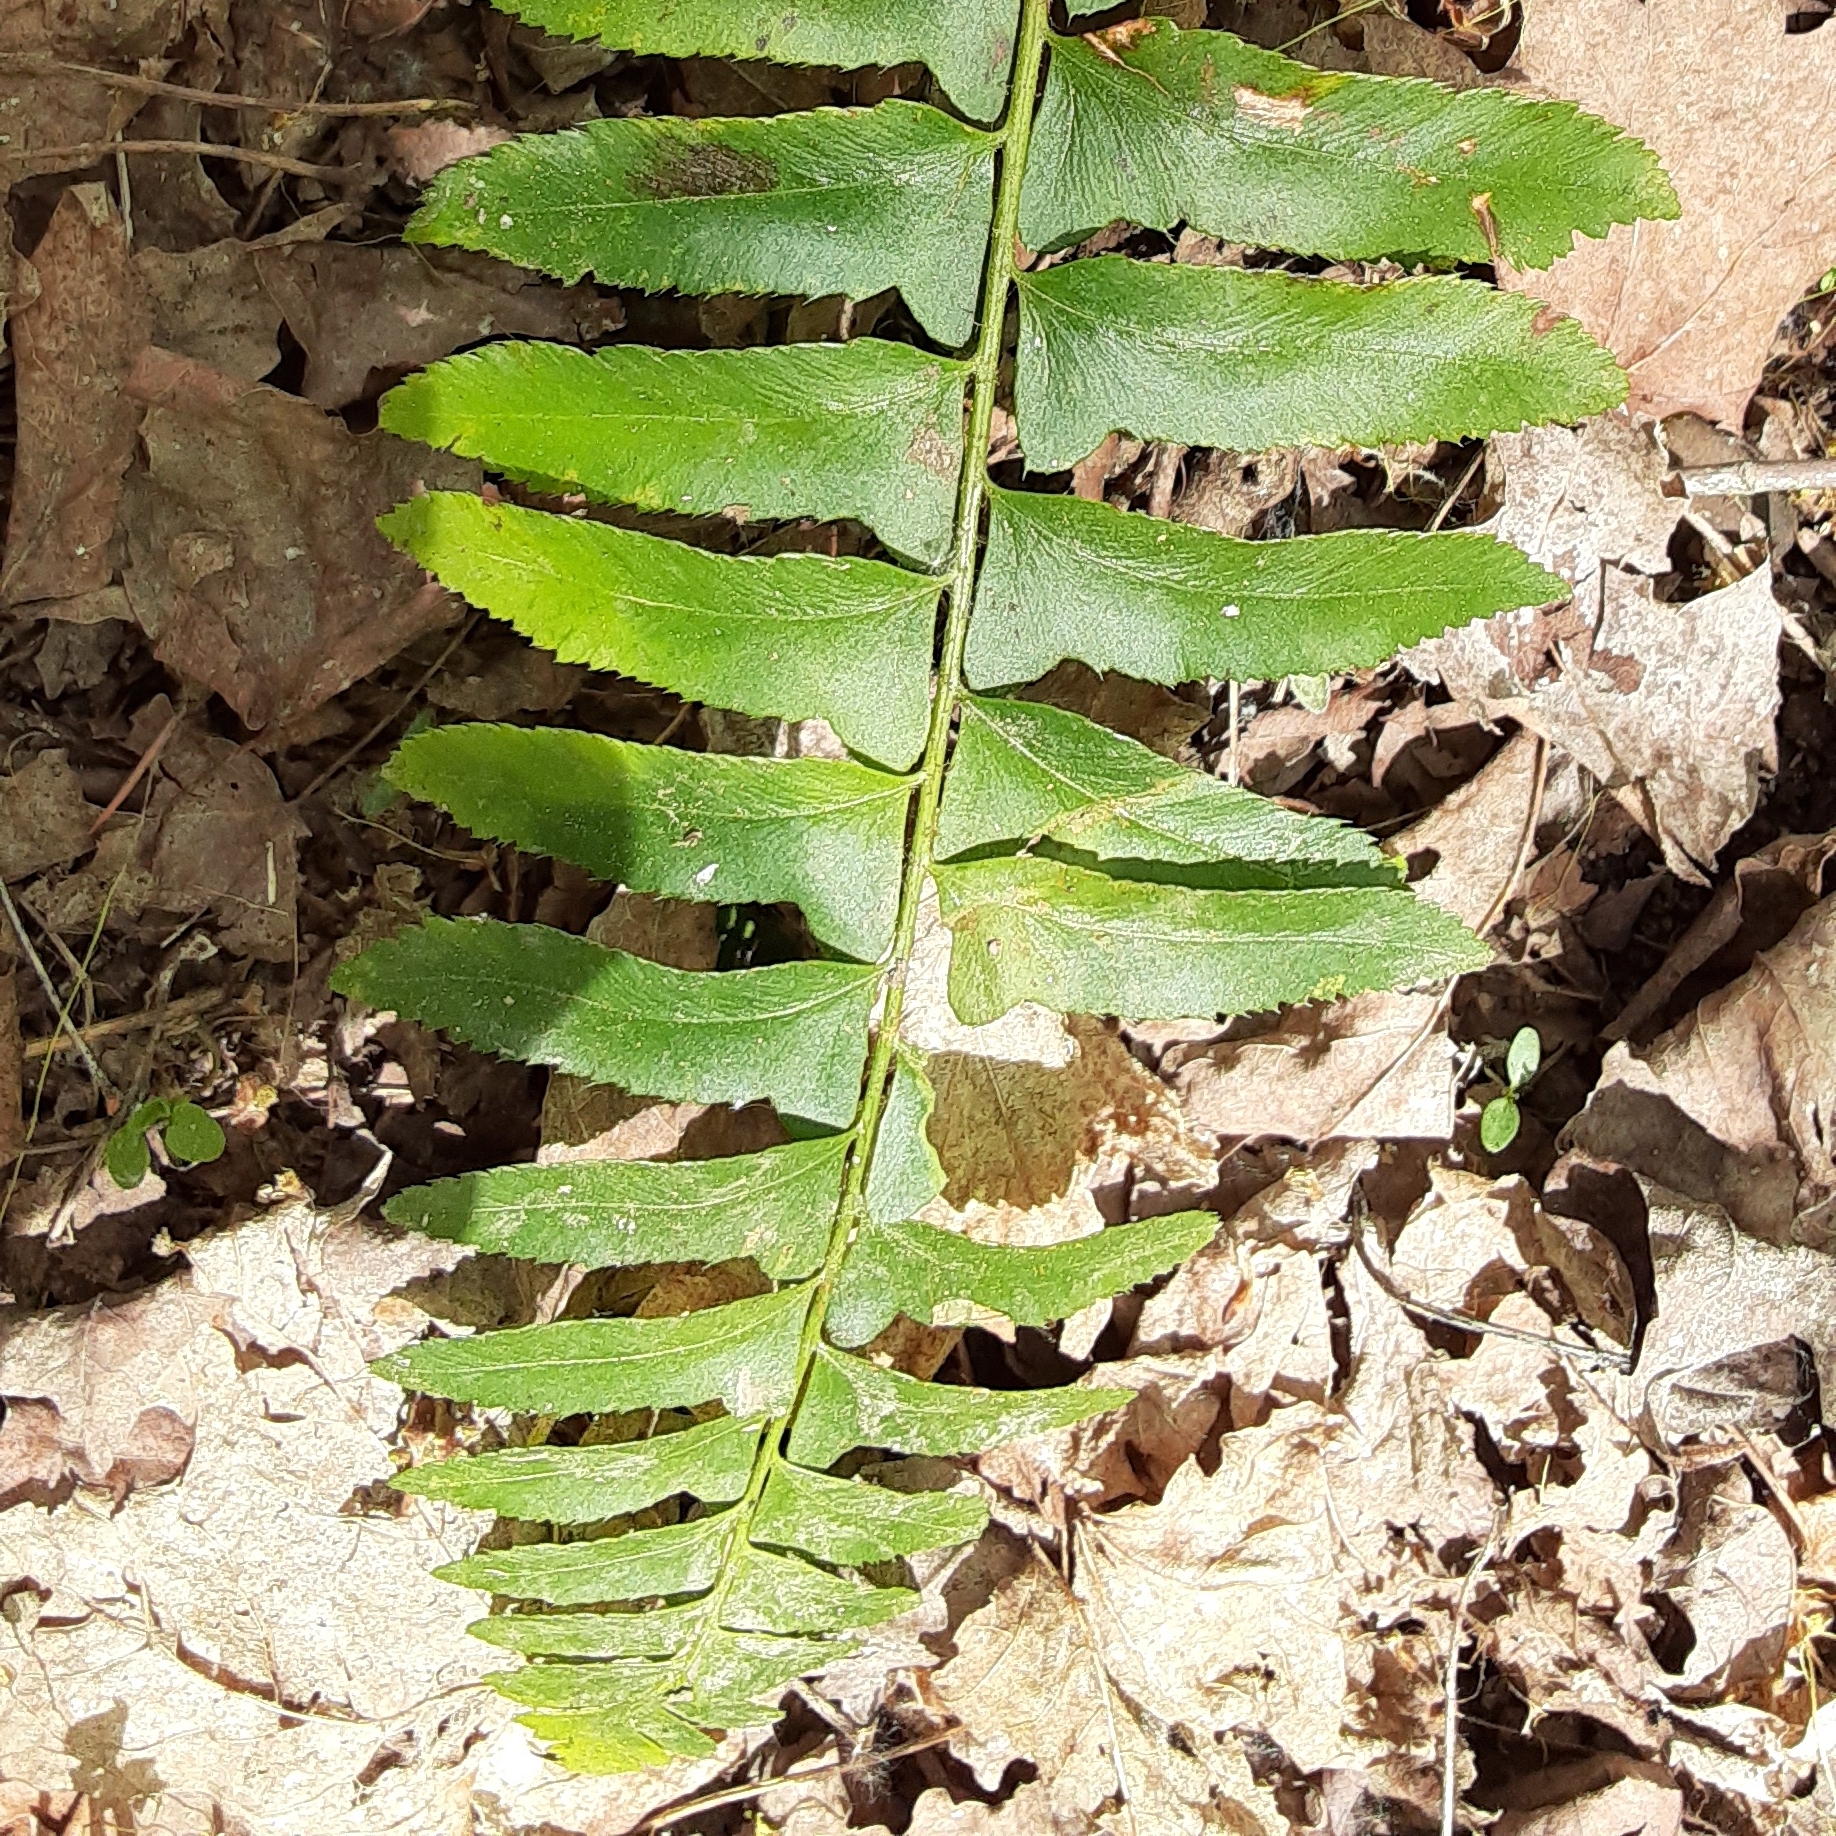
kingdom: Plantae
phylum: Tracheophyta
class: Polypodiopsida
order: Polypodiales
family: Dryopteridaceae
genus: Polystichum
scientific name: Polystichum acrostichoides
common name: Christmas fern
